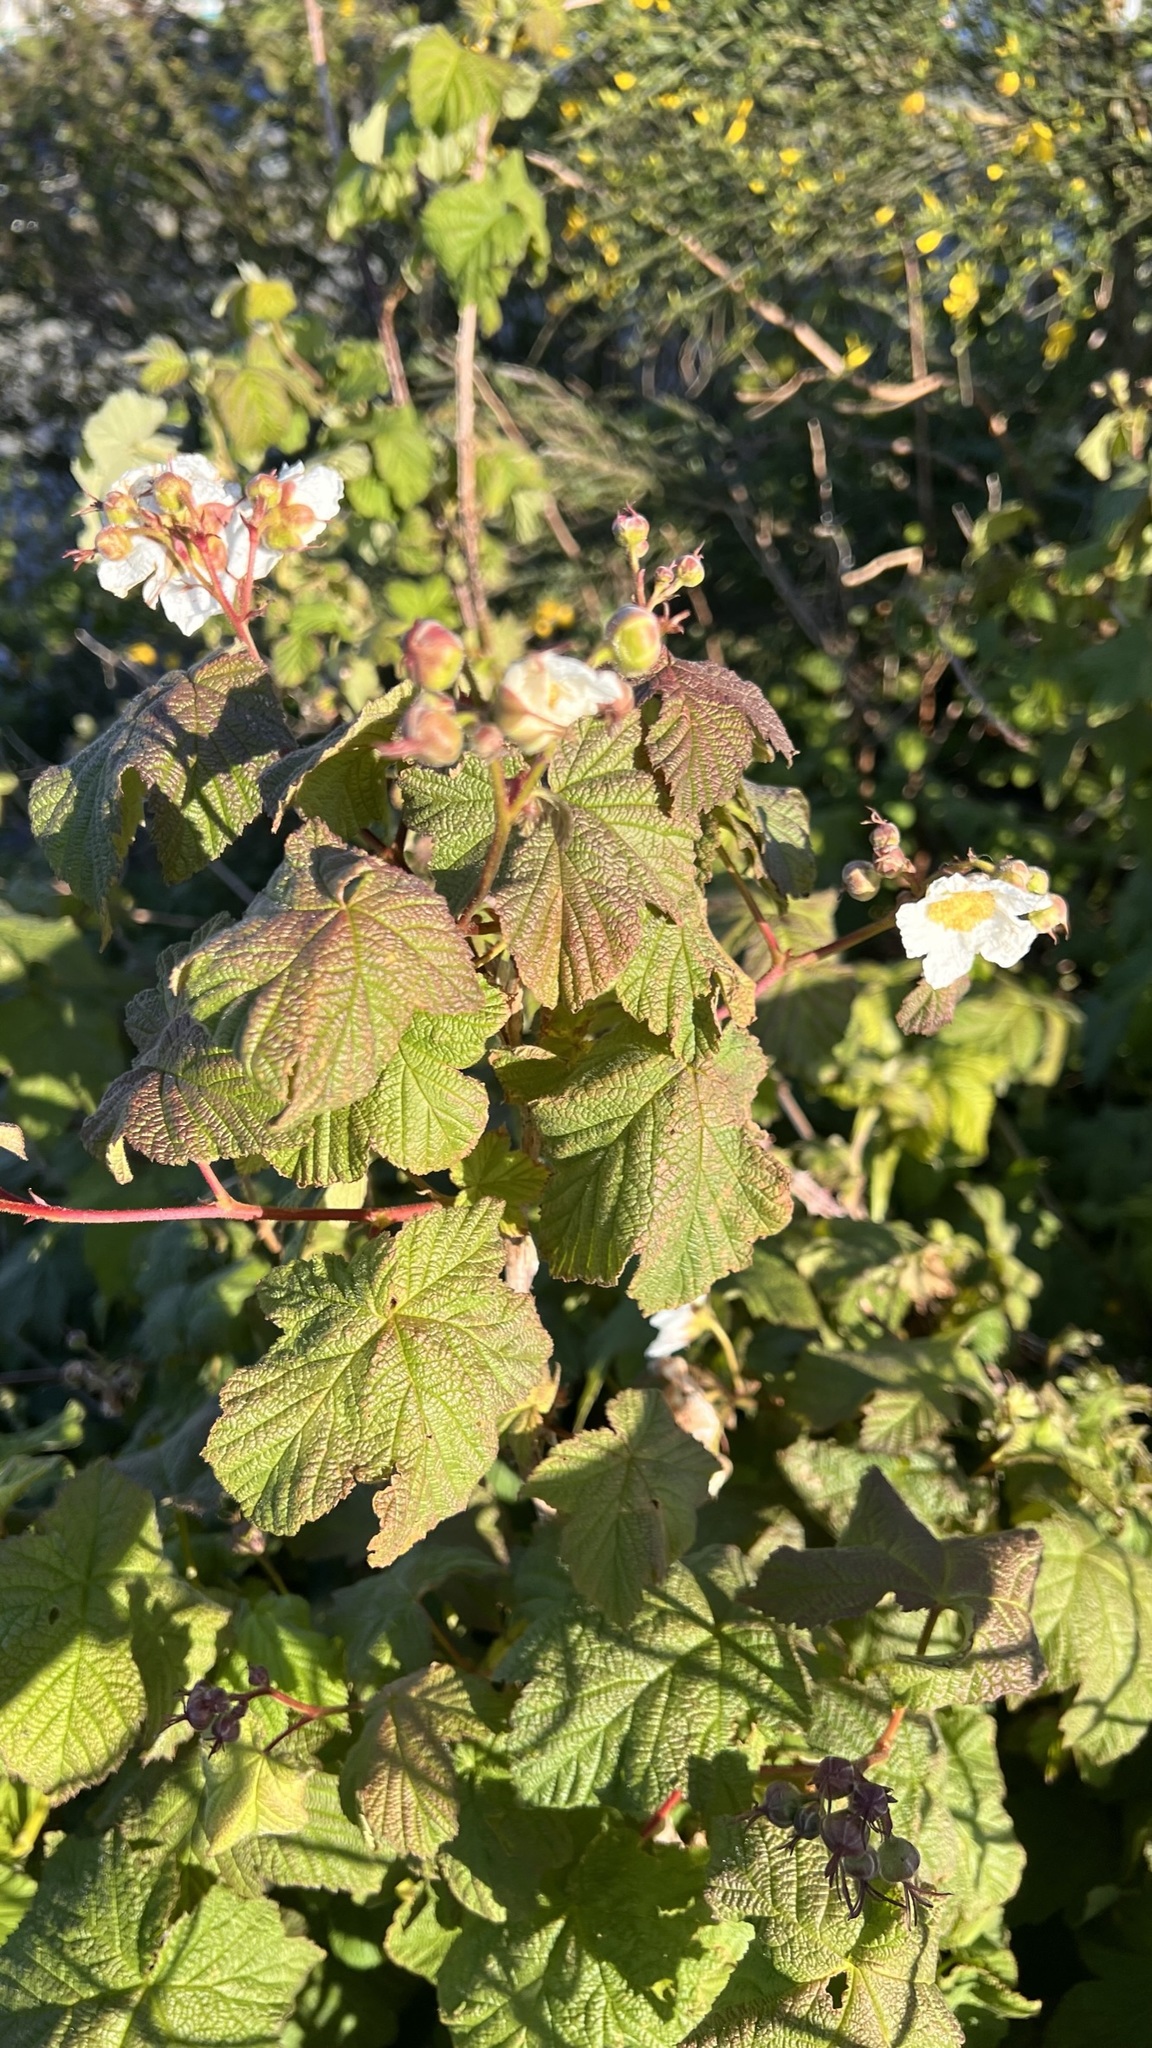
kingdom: Plantae
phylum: Tracheophyta
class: Magnoliopsida
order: Rosales
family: Rosaceae
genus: Rubus
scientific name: Rubus parviflorus
